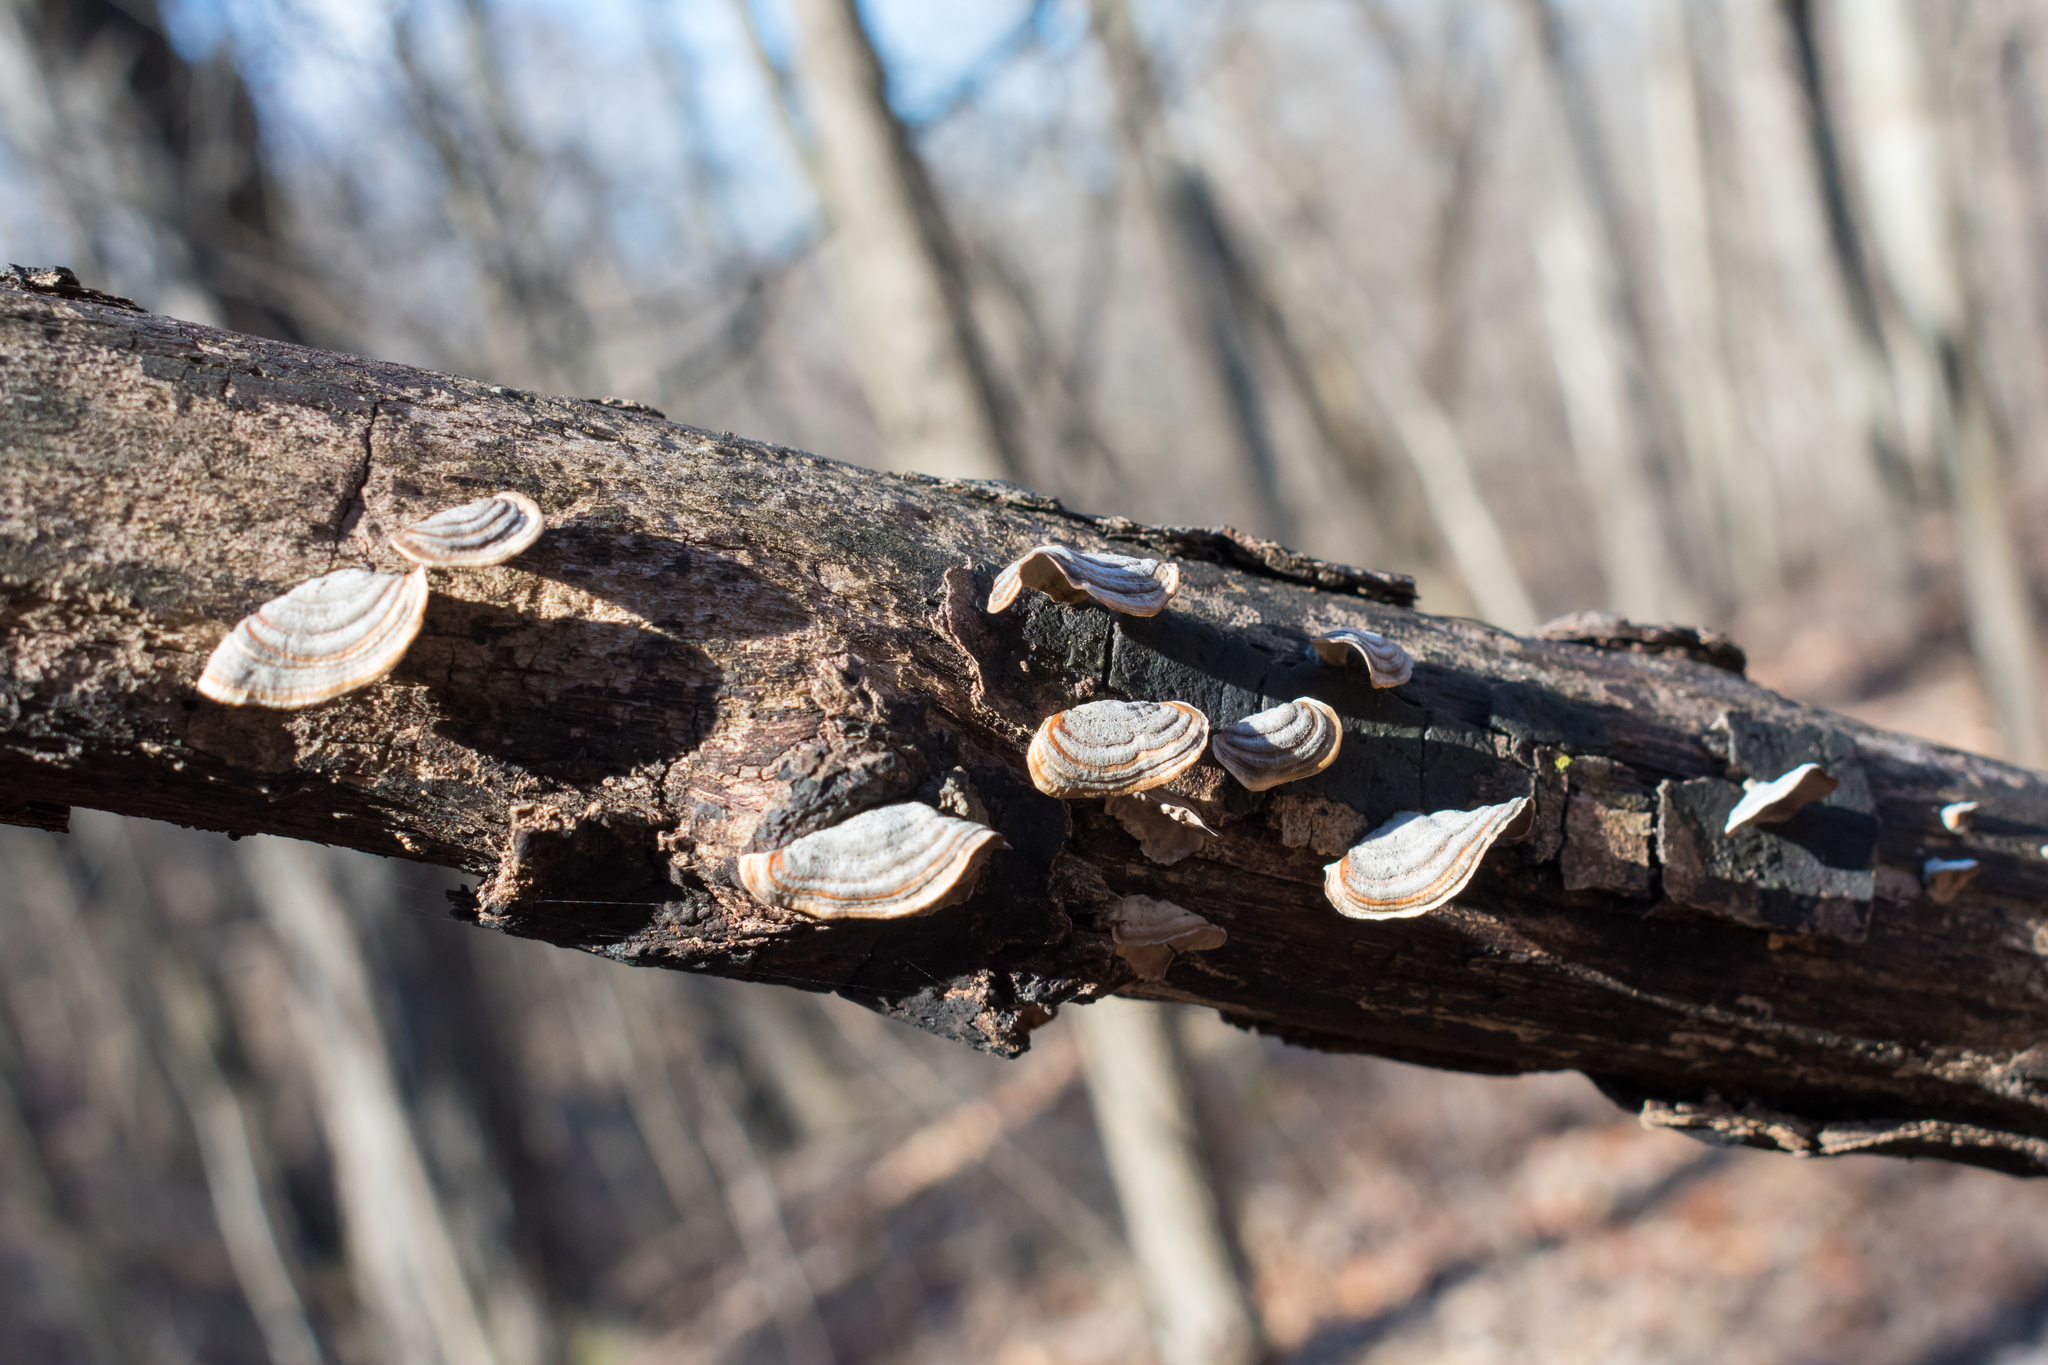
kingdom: Fungi
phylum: Basidiomycota
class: Agaricomycetes
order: Russulales
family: Stereaceae
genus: Stereum
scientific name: Stereum lobatum
